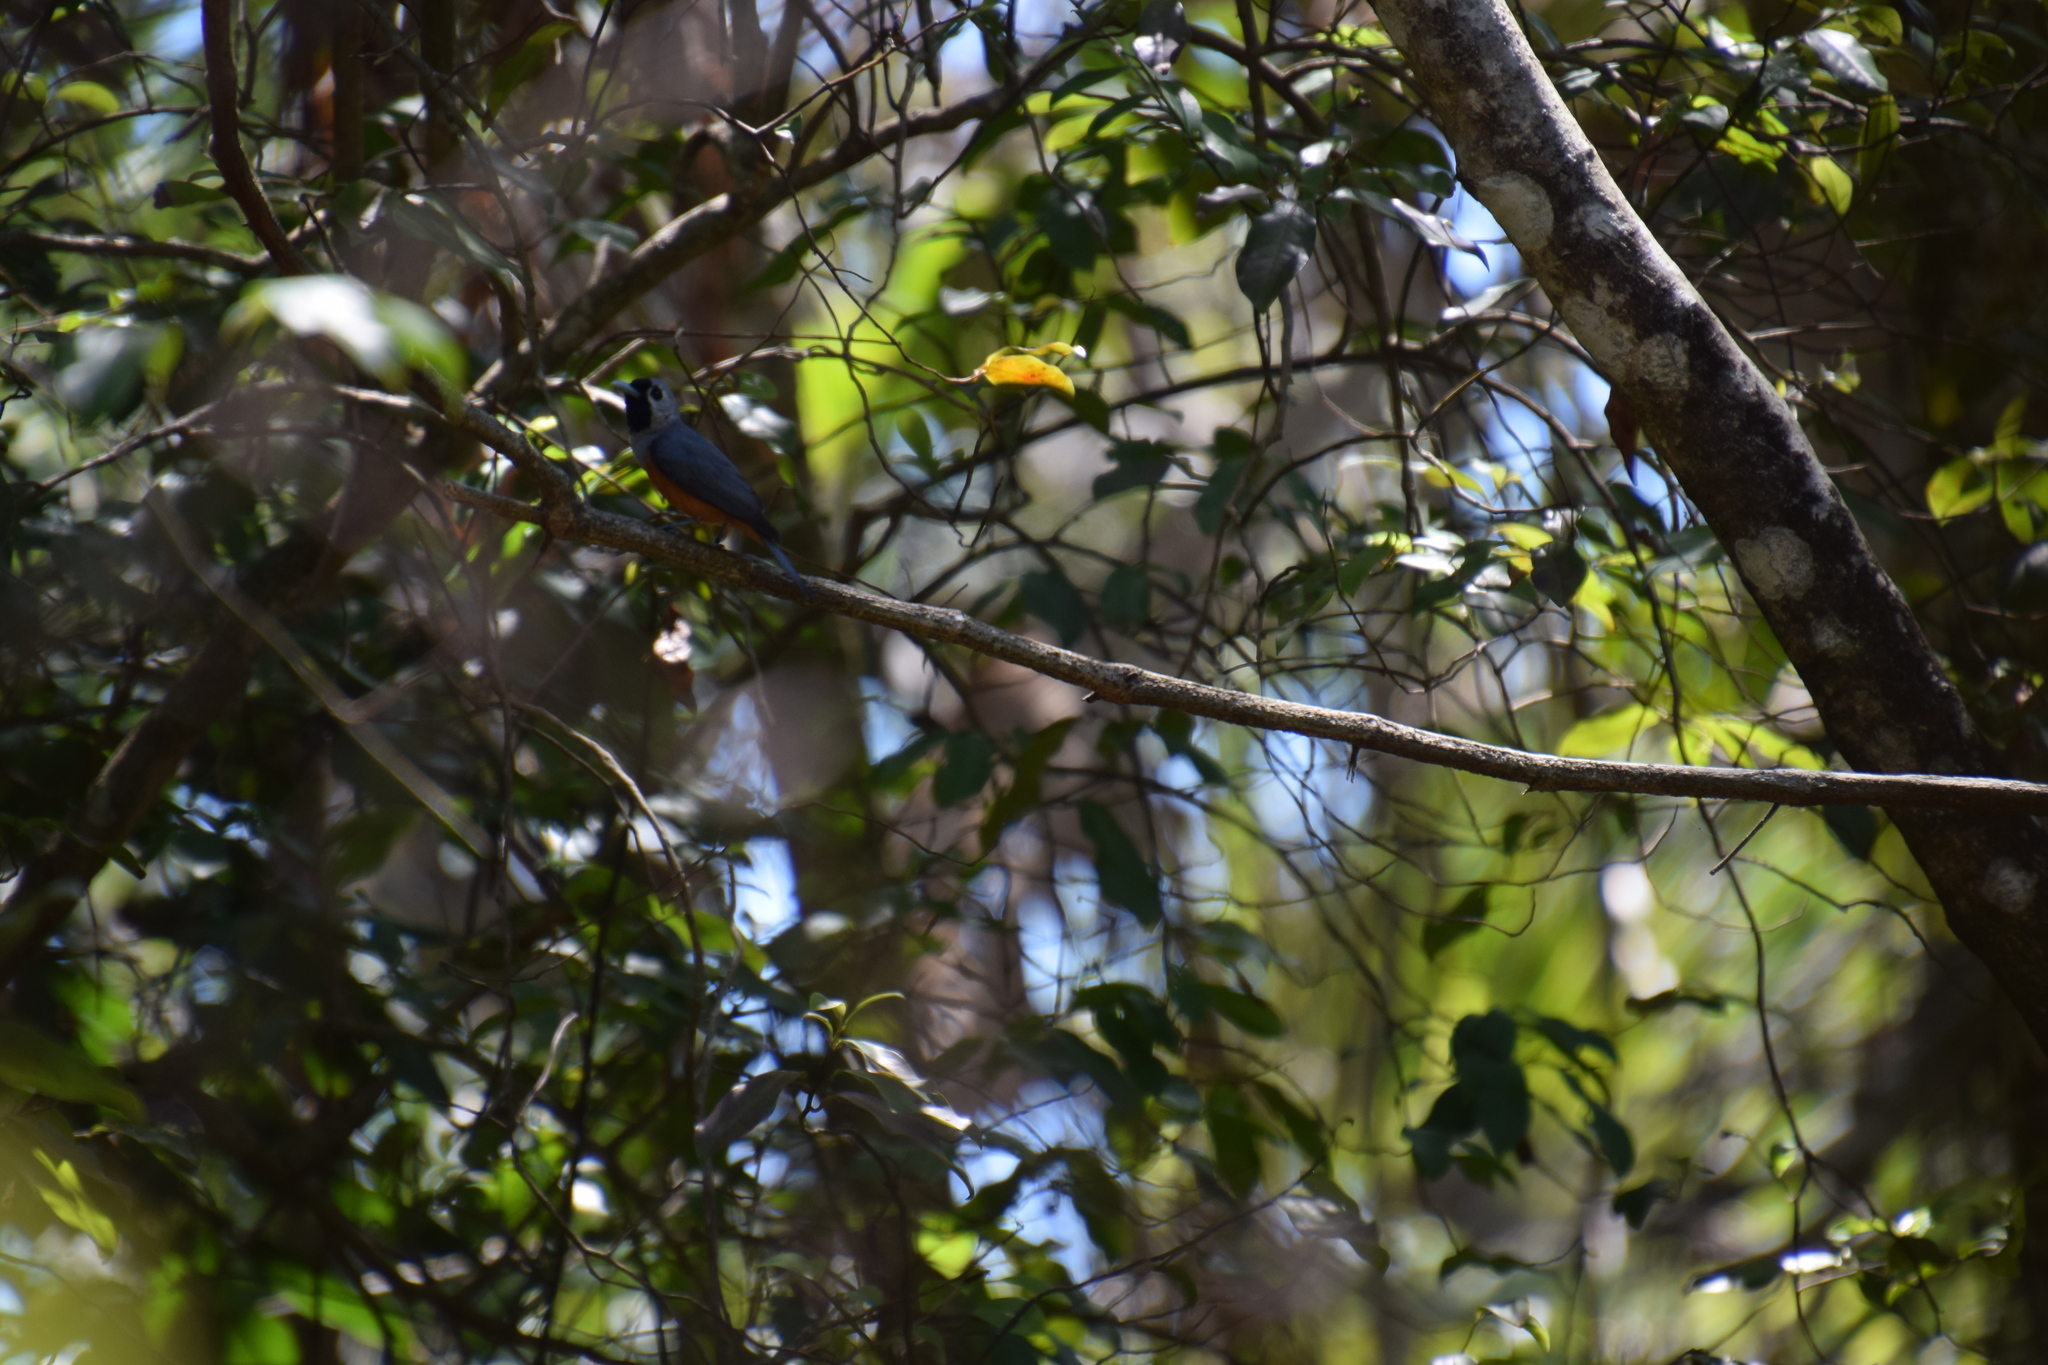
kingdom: Animalia
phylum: Chordata
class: Aves
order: Passeriformes
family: Monarchidae
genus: Monarcha
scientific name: Monarcha melanopsis
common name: Black-faced monarch
